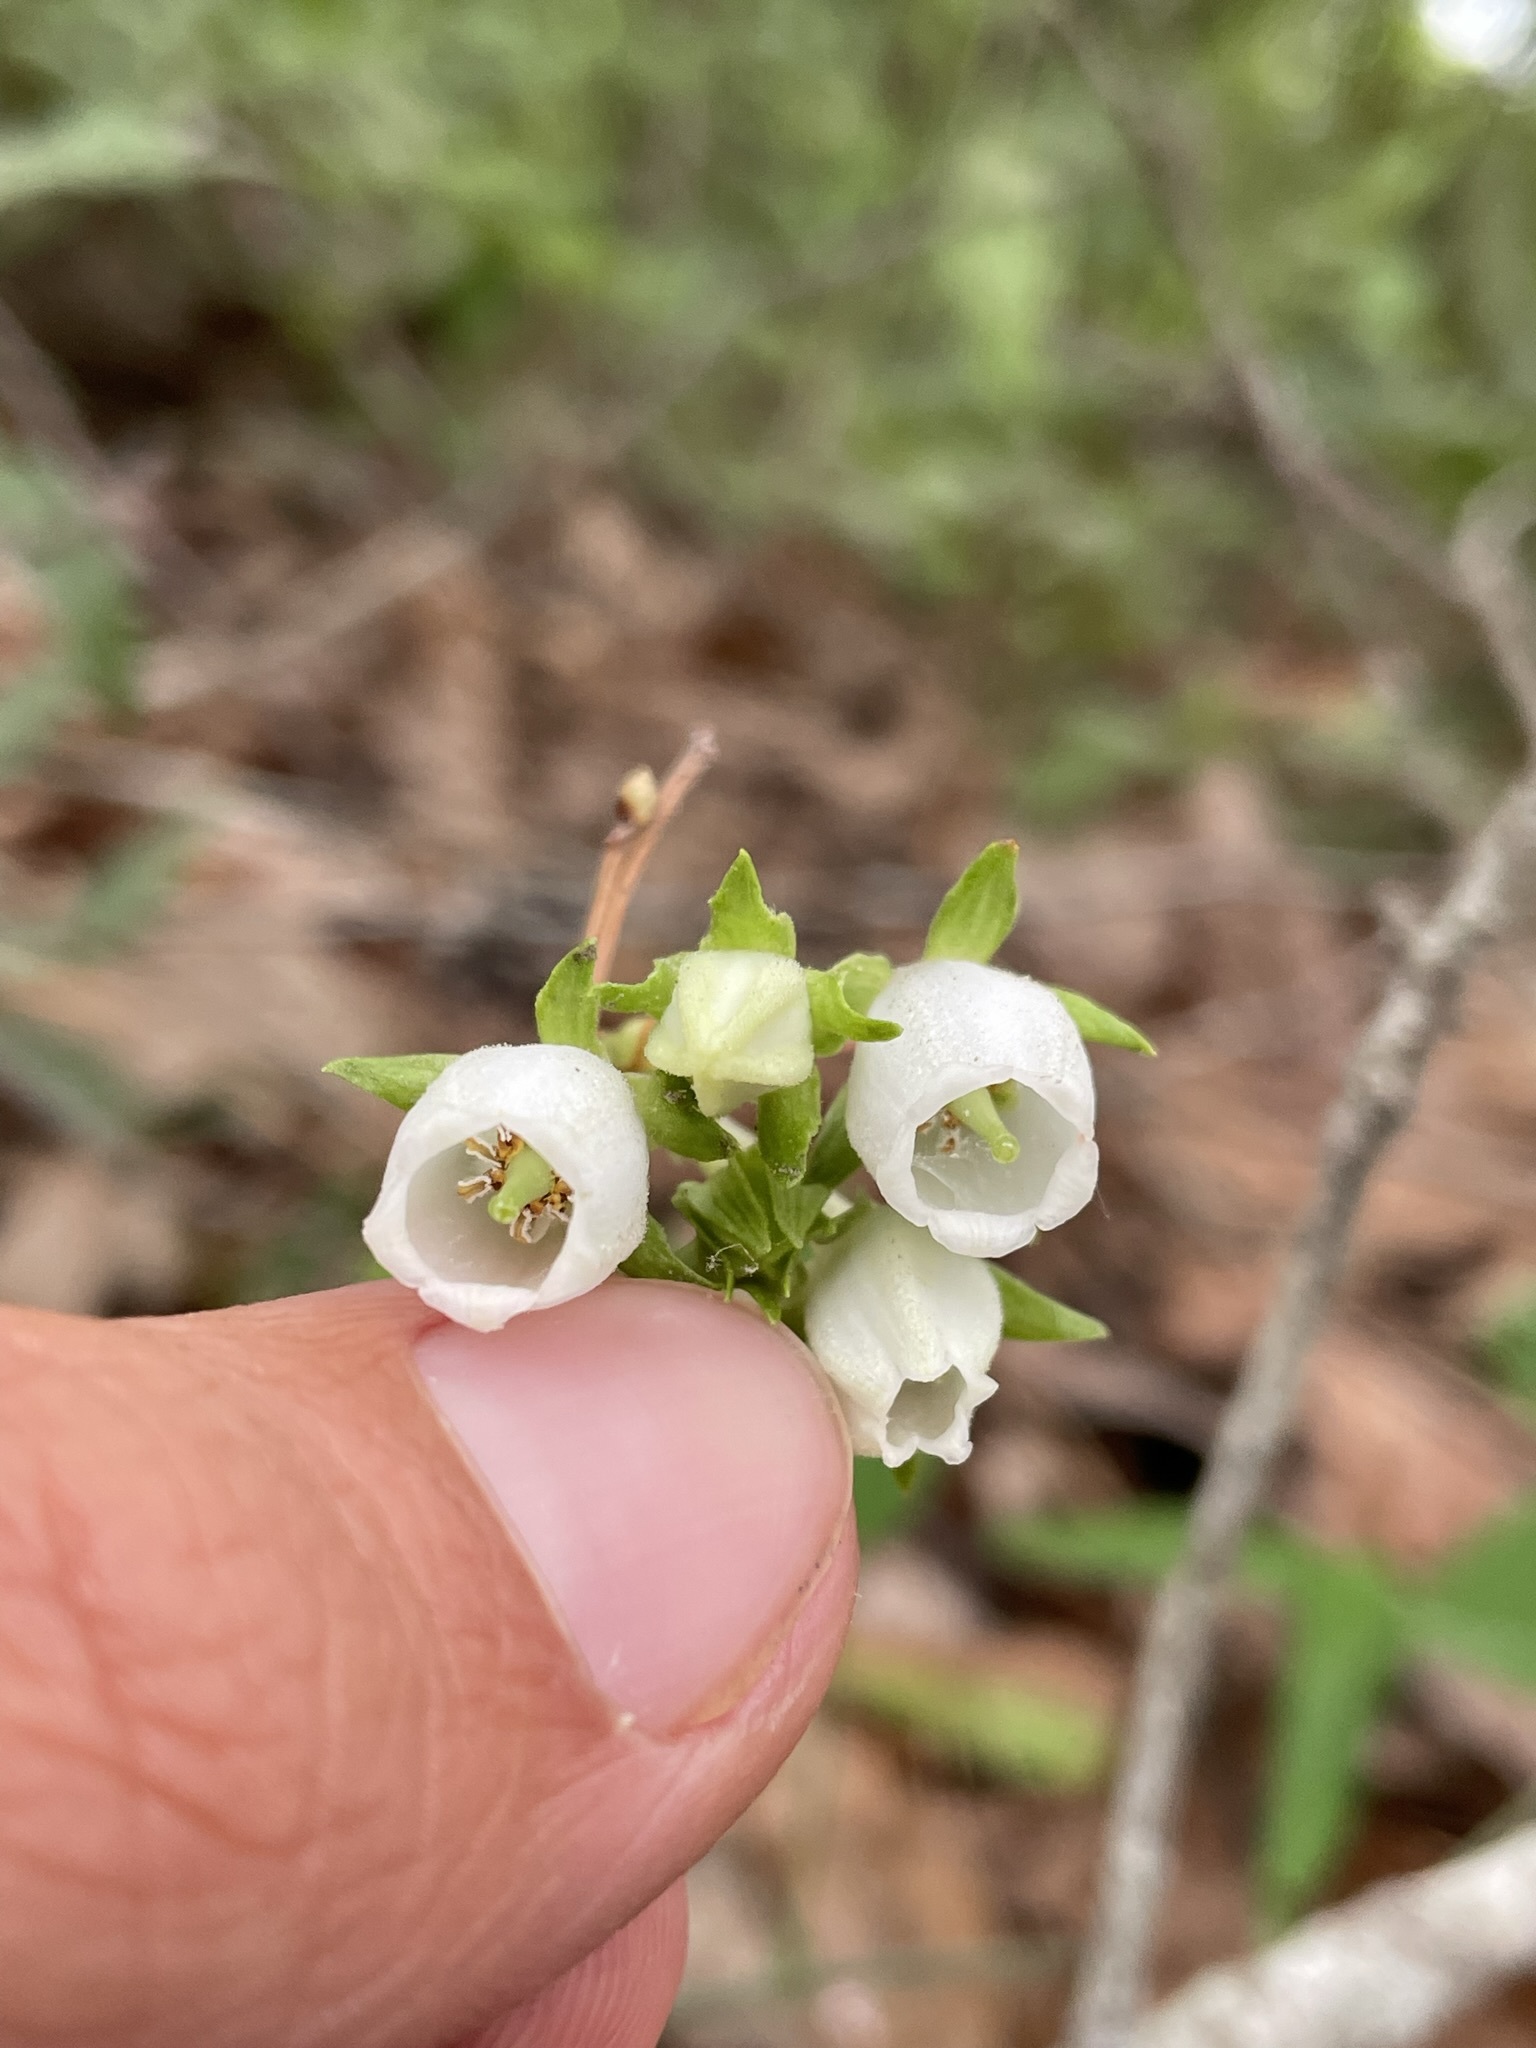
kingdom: Plantae
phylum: Tracheophyta
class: Magnoliopsida
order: Ericales
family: Ericaceae
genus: Lyonia
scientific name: Lyonia mariana
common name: Staggerbush
